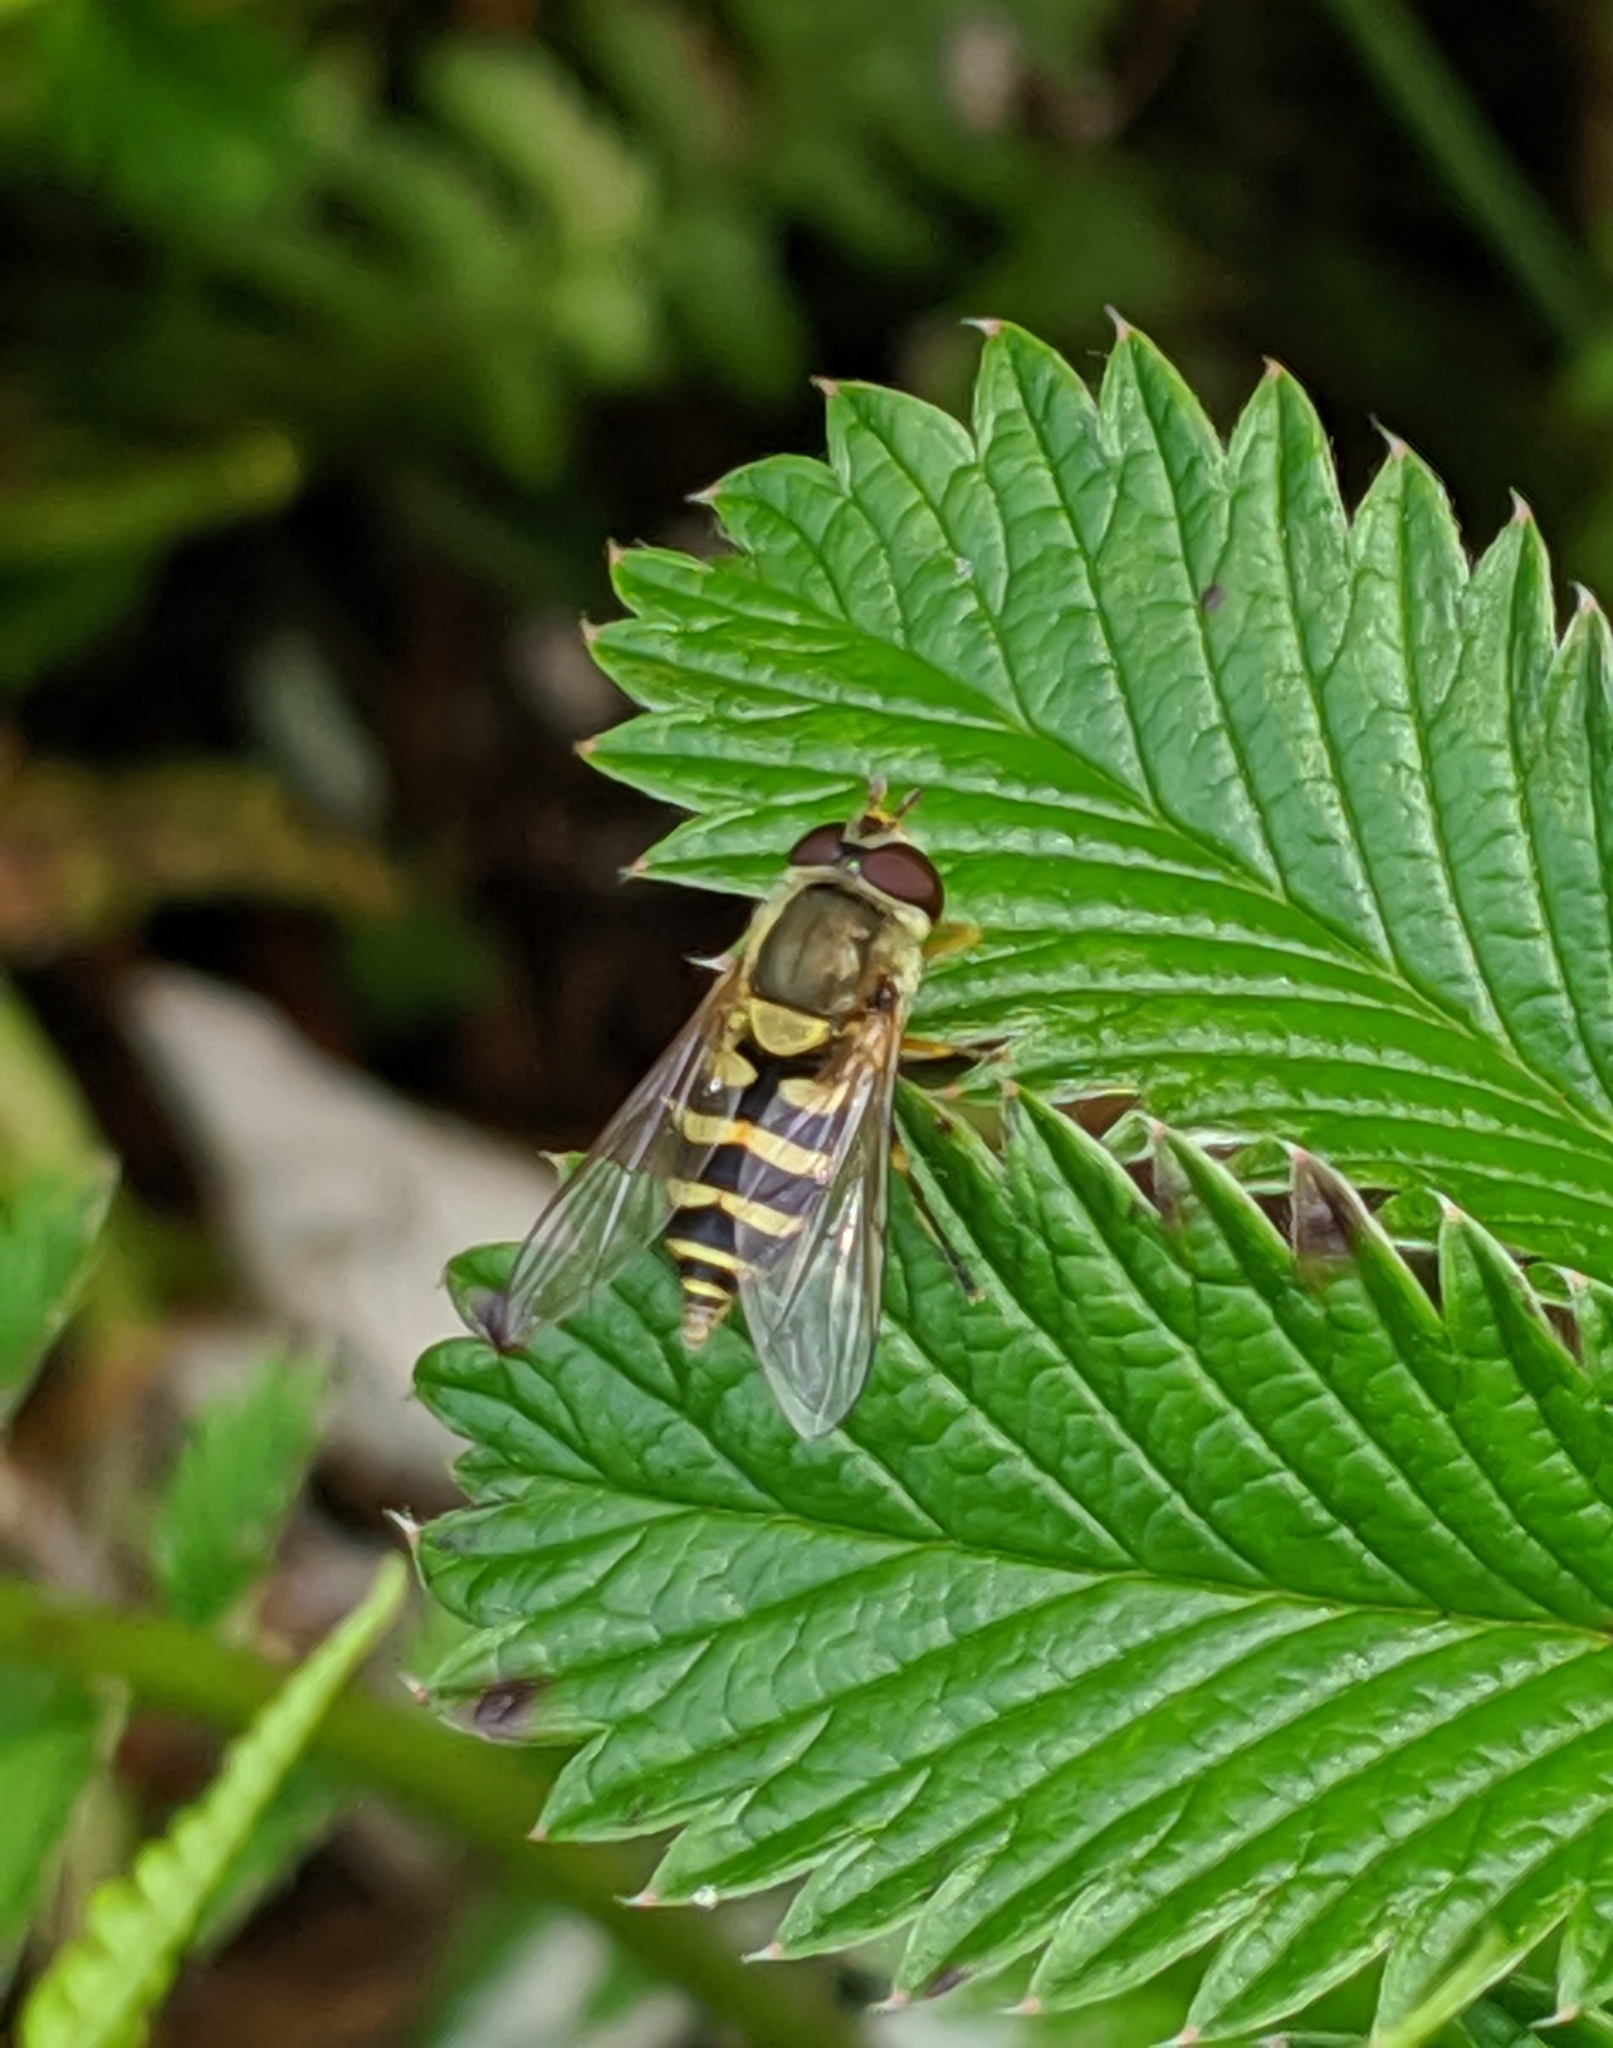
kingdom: Animalia
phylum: Arthropoda
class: Insecta
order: Diptera
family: Syrphidae
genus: Syrphus
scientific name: Syrphus
